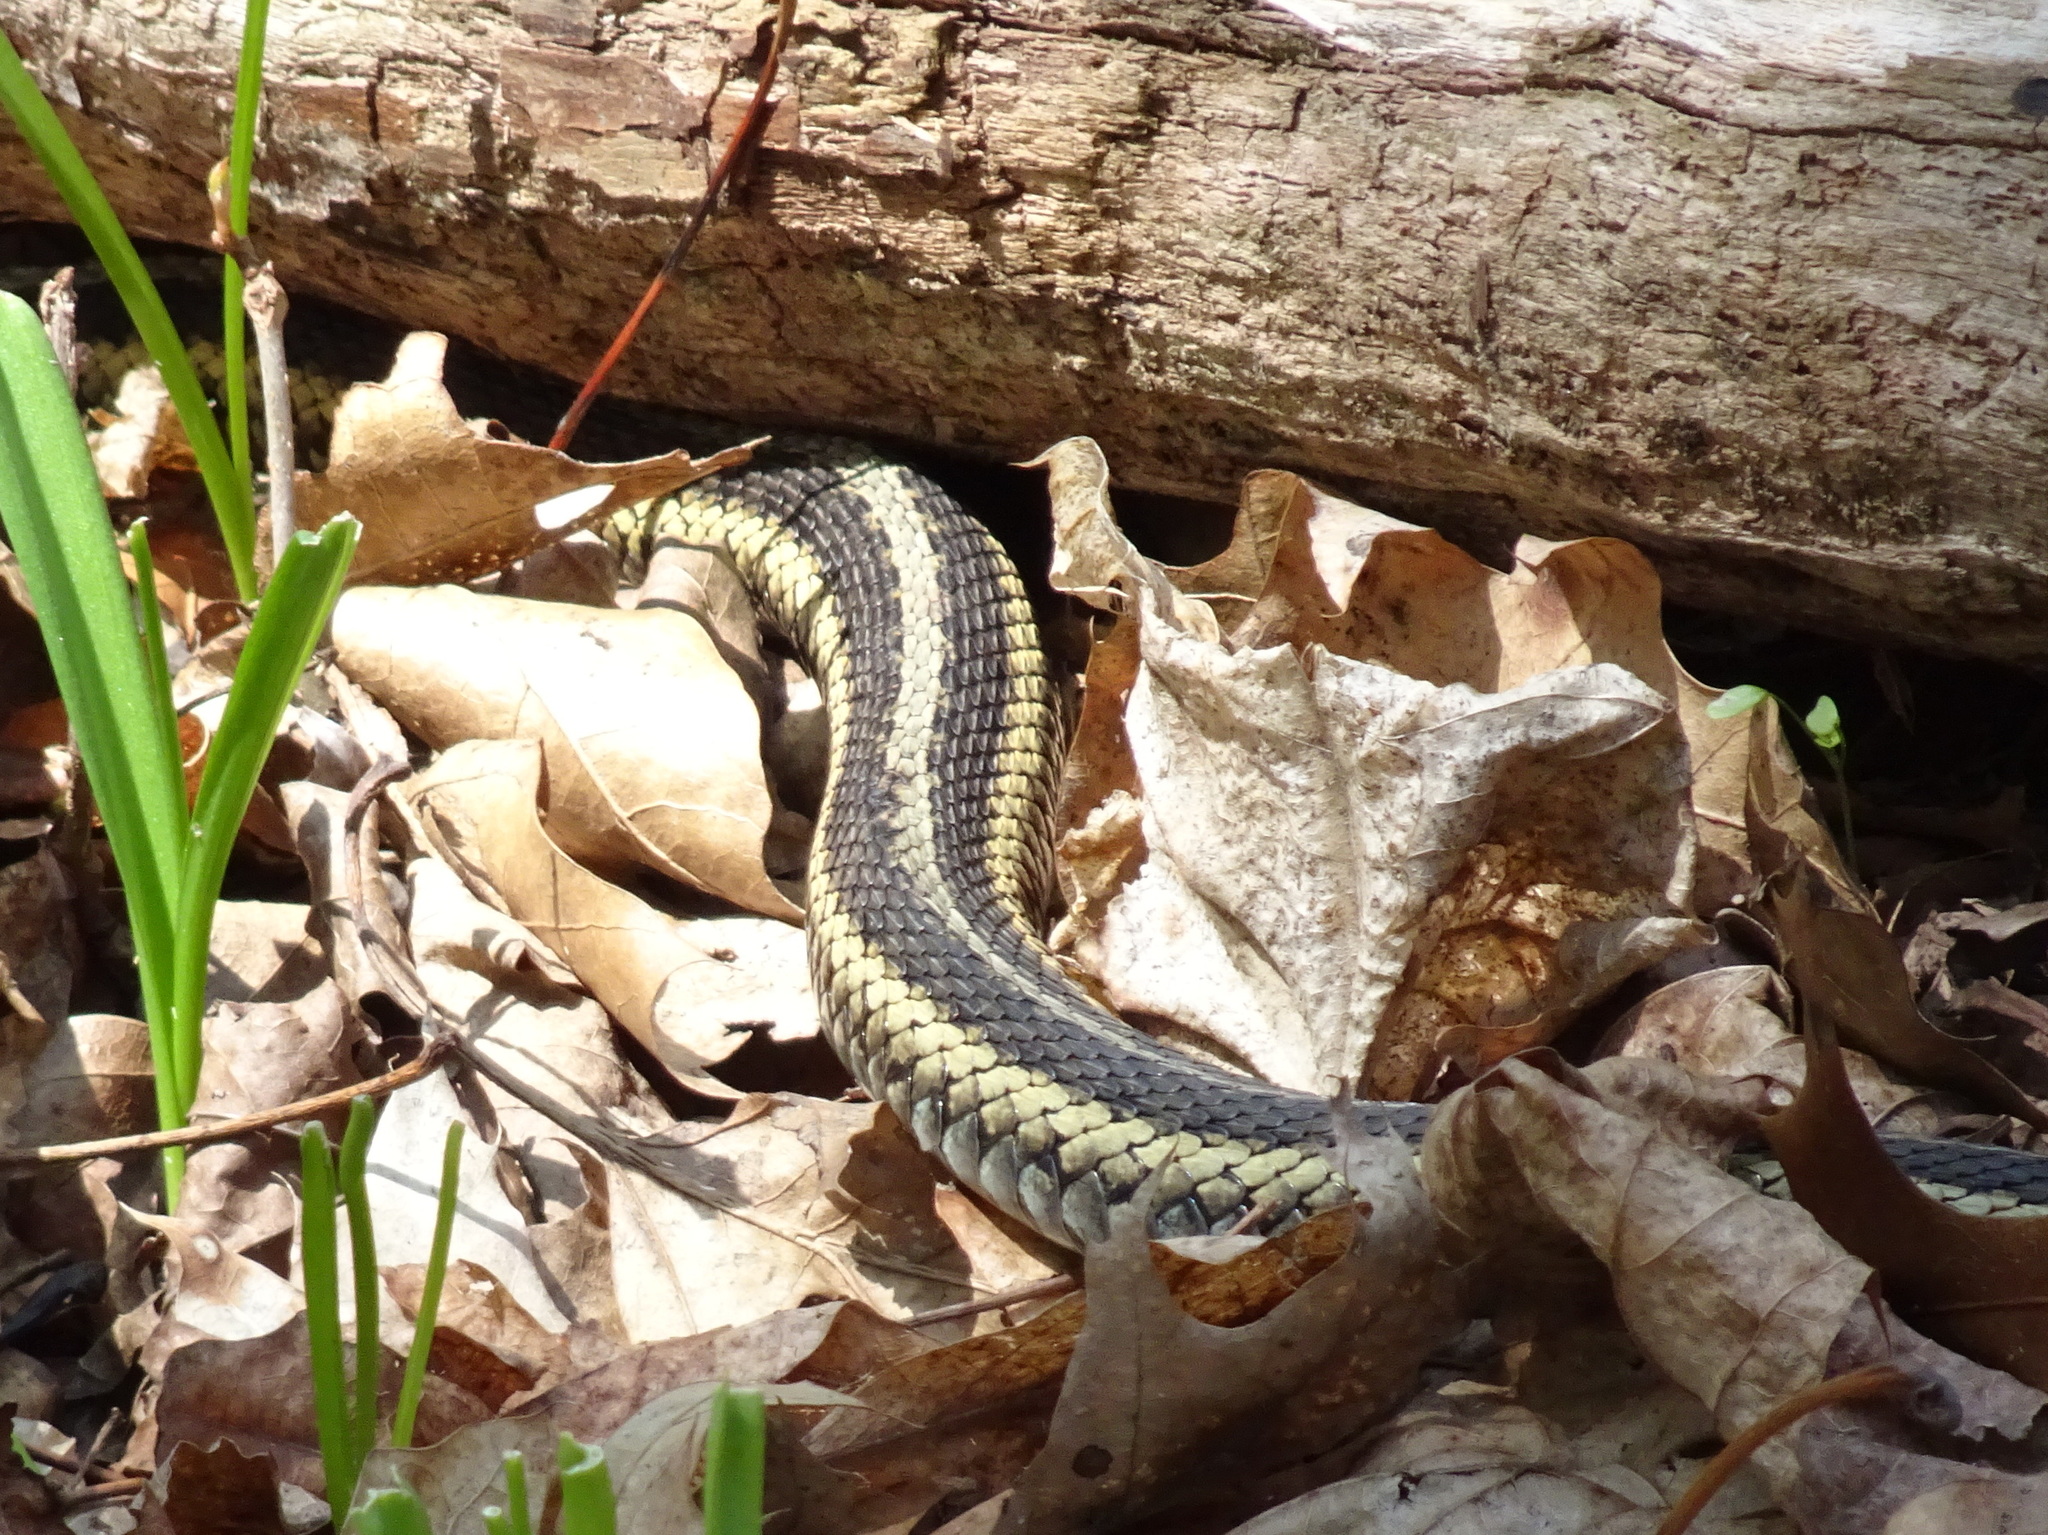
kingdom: Animalia
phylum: Chordata
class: Squamata
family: Colubridae
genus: Thamnophis
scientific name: Thamnophis sirtalis
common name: Common garter snake
